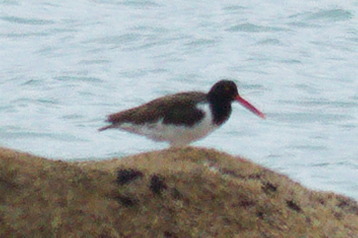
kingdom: Animalia
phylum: Chordata
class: Aves
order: Charadriiformes
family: Haematopodidae
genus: Haematopus
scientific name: Haematopus palliatus
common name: American oystercatcher
